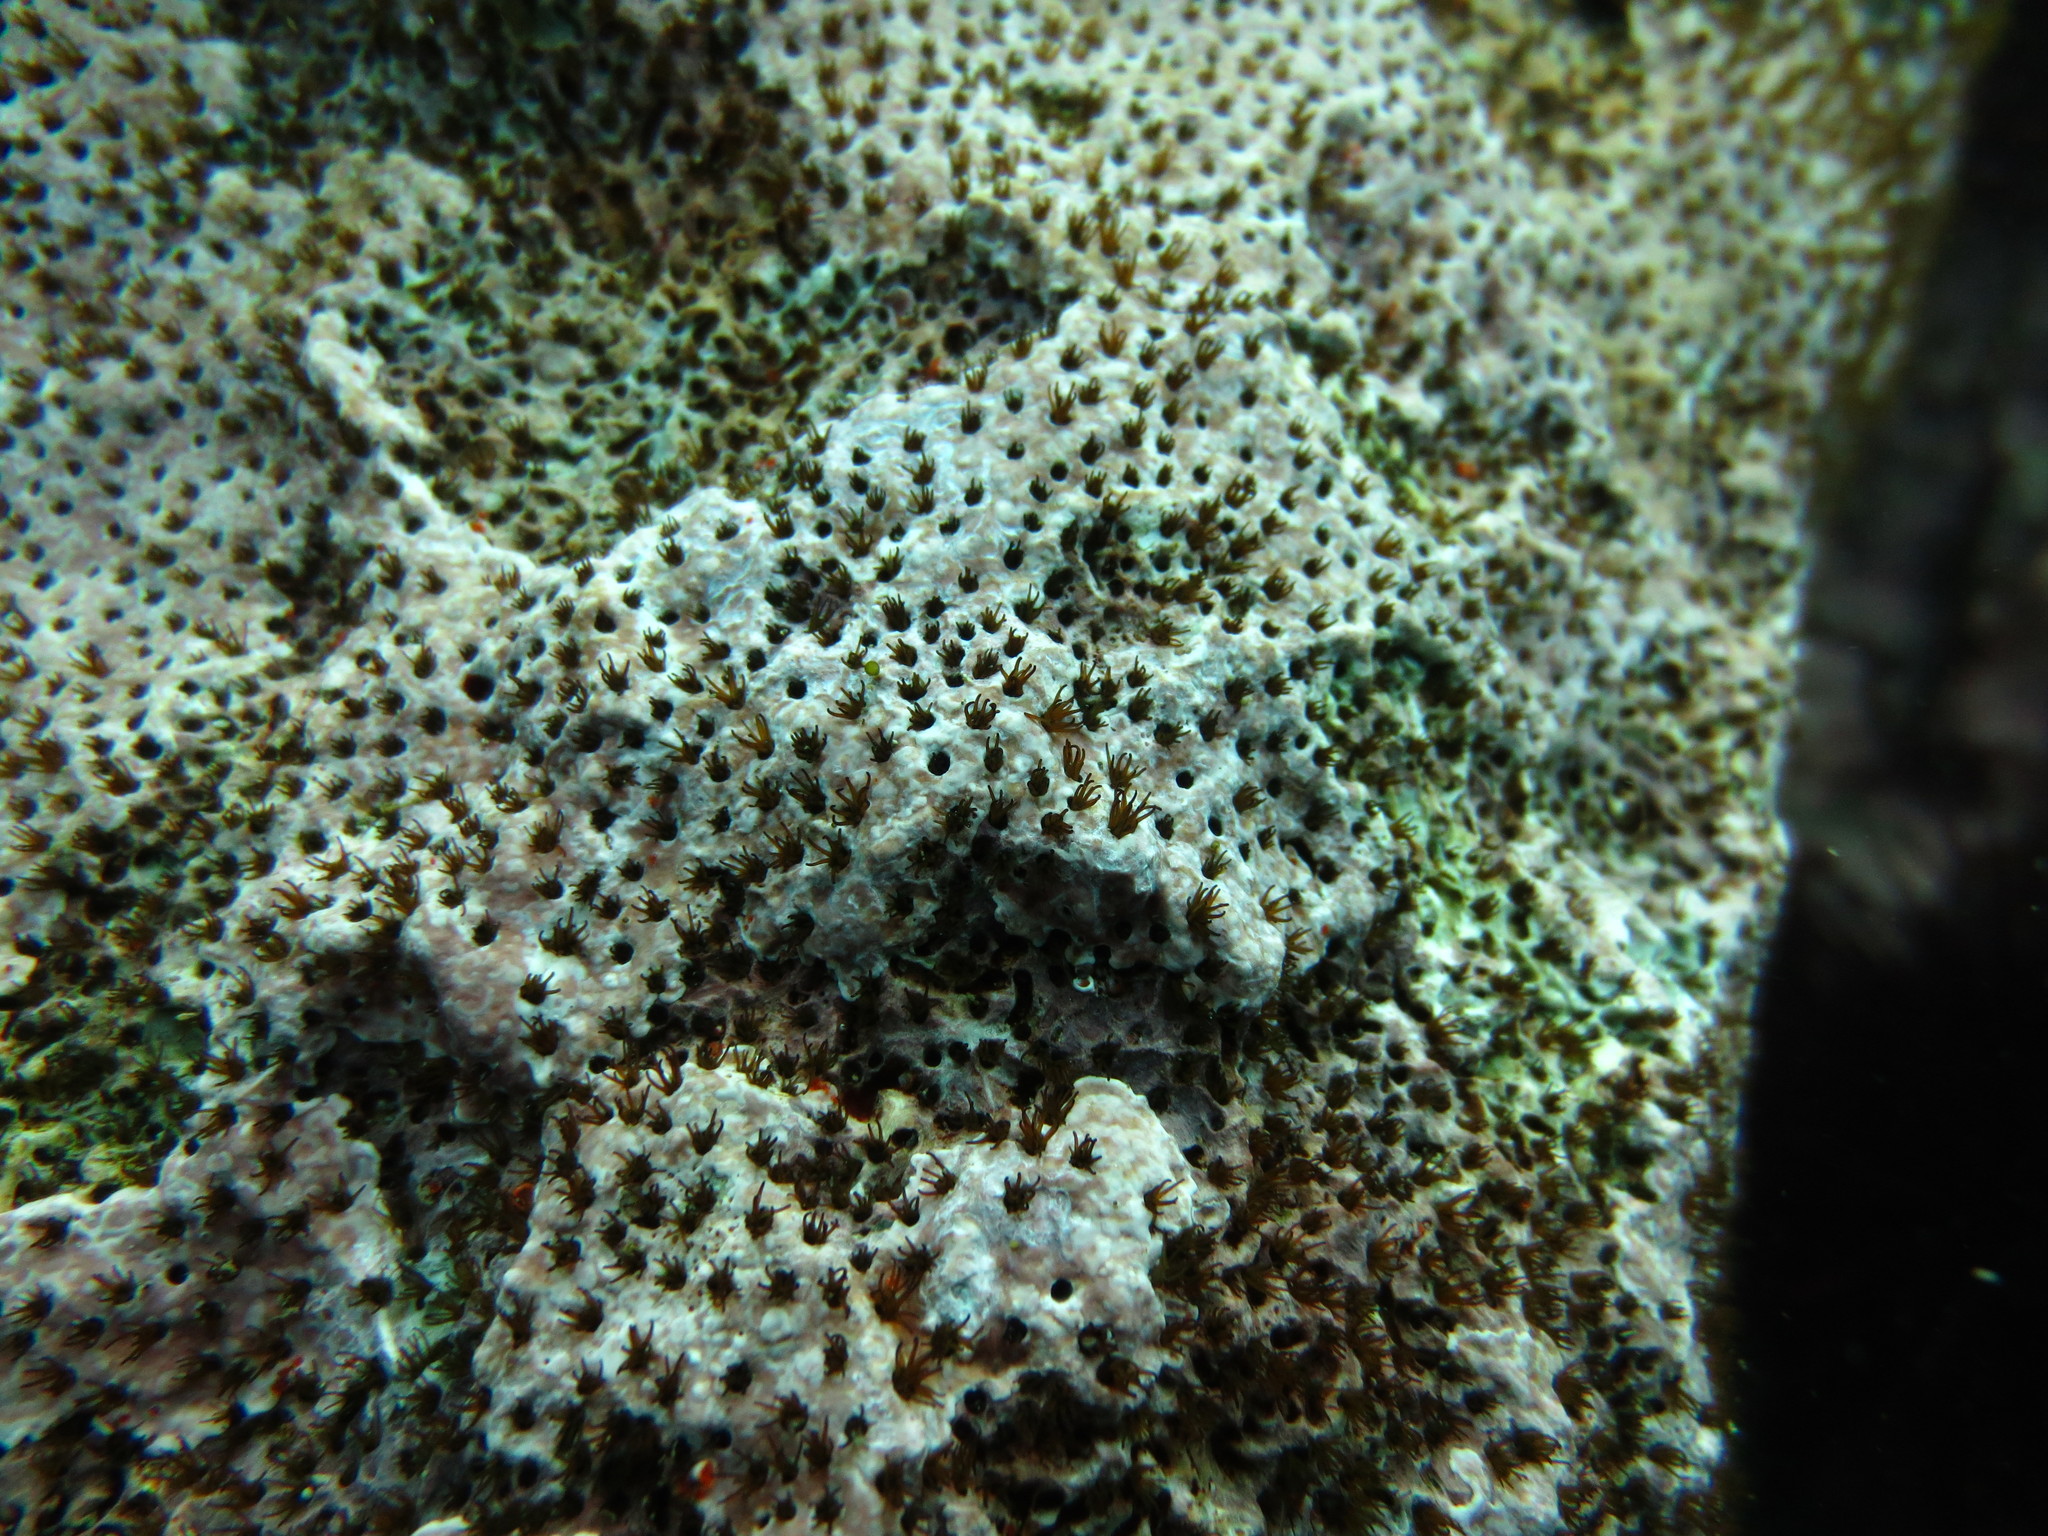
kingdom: Animalia
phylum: Annelida
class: Polychaeta
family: Cirratulidae
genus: Dodecaceria
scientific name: Dodecaceria concharum
